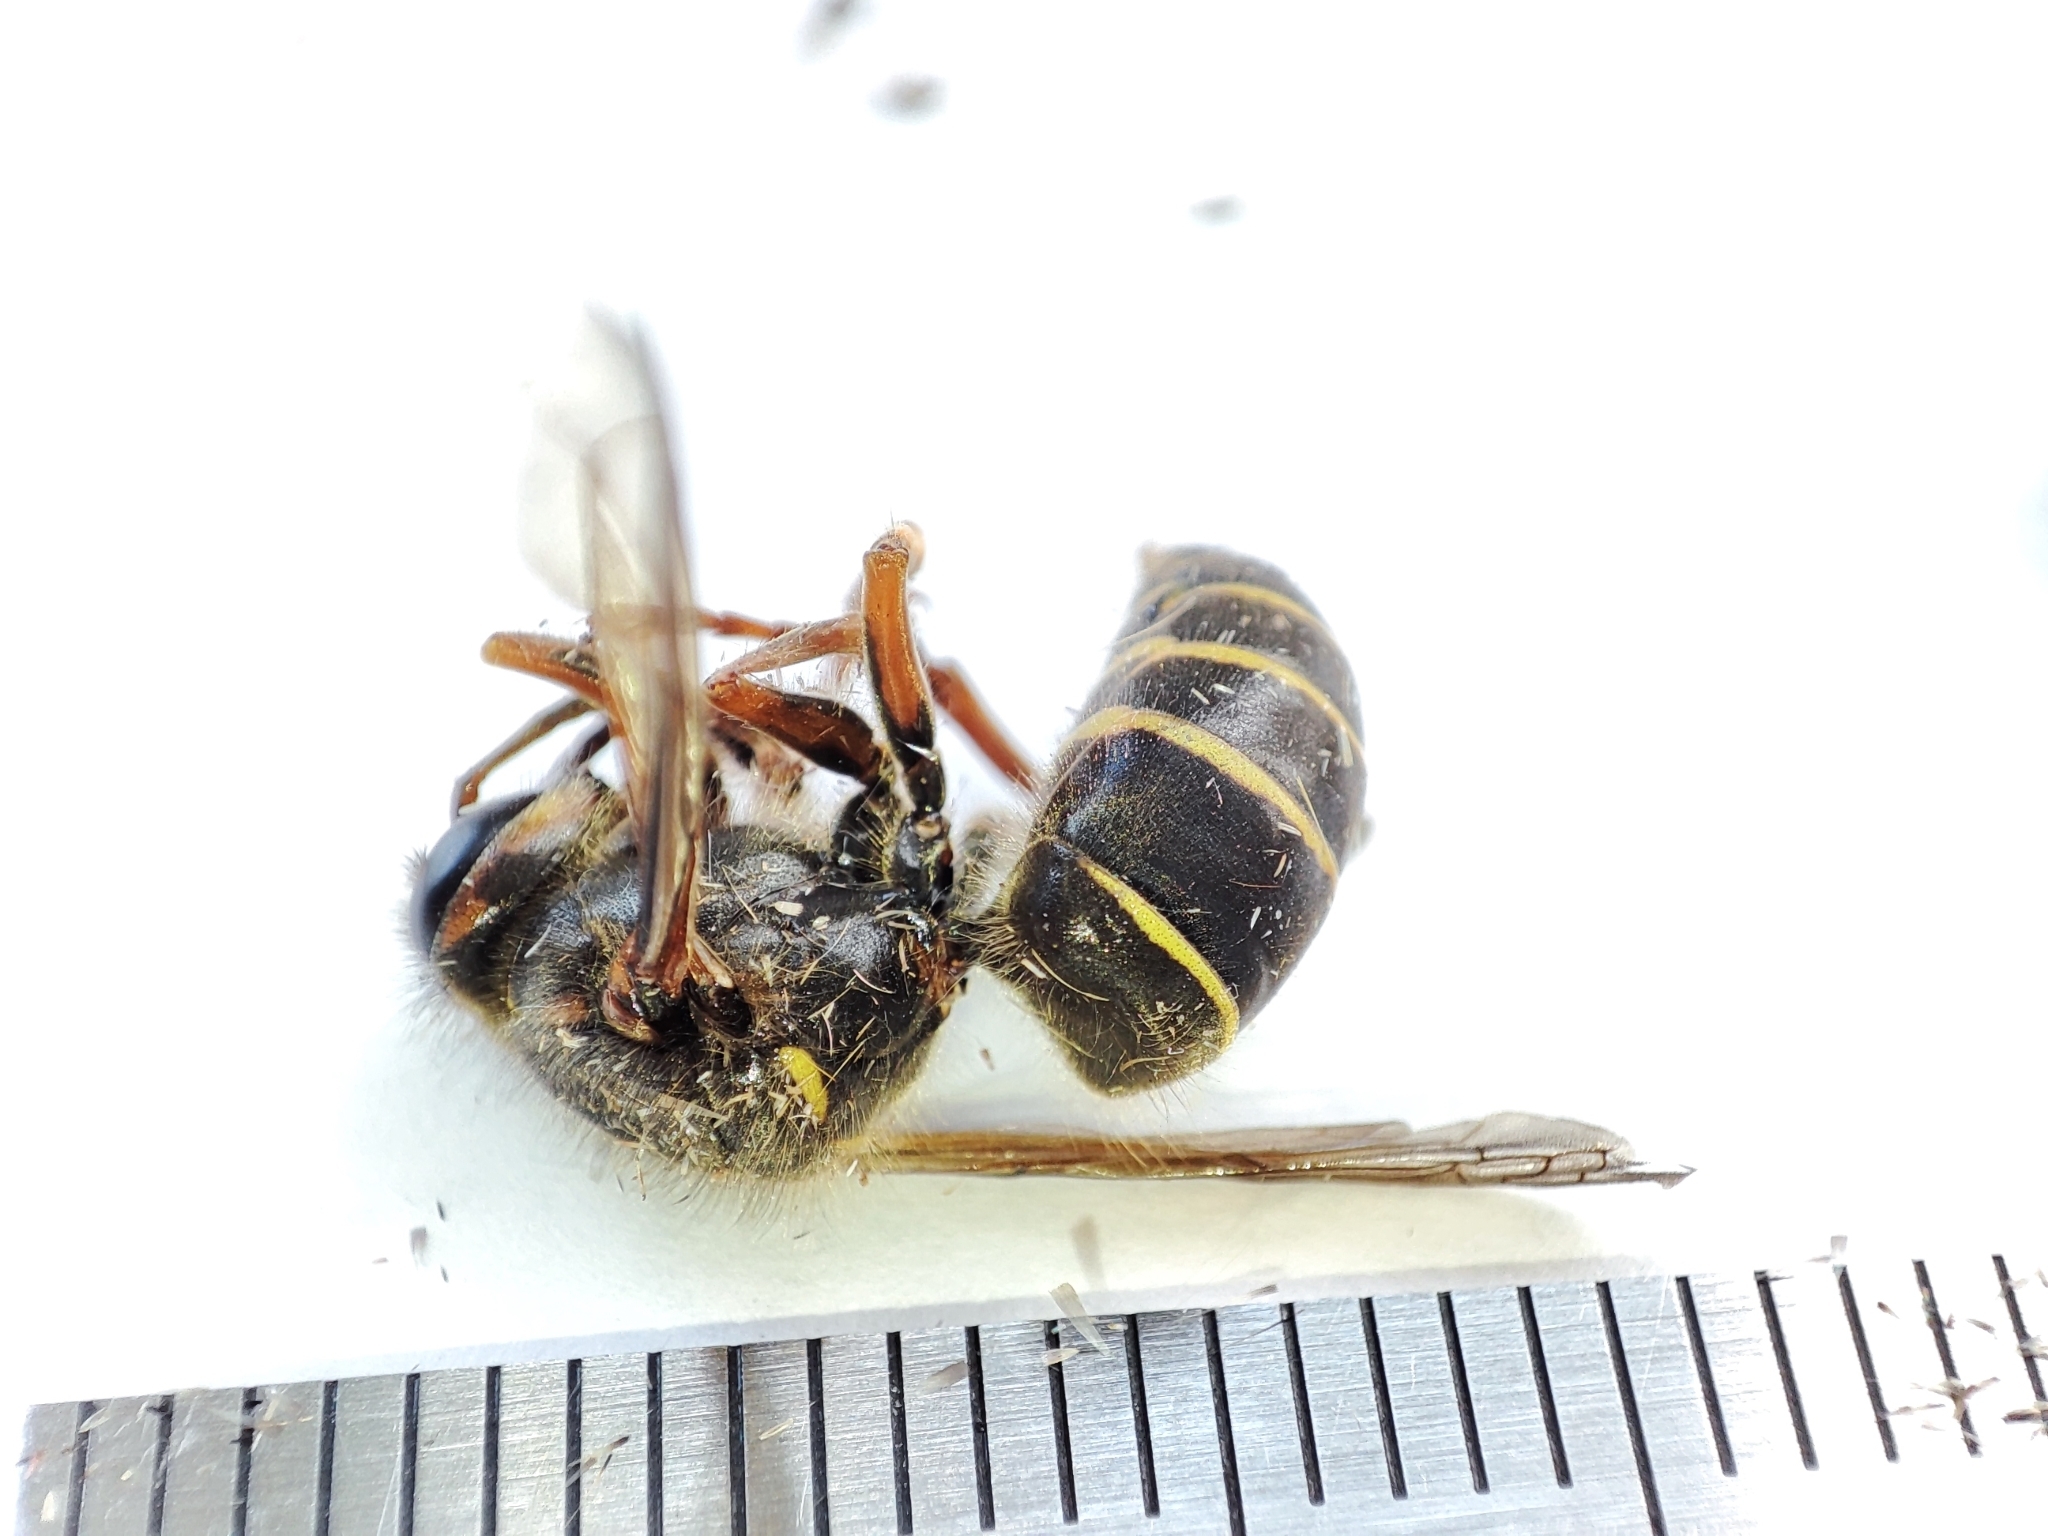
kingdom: Animalia
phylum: Arthropoda
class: Insecta
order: Hymenoptera
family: Vespidae
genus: Dolichovespula
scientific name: Dolichovespula media
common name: Median wasp
